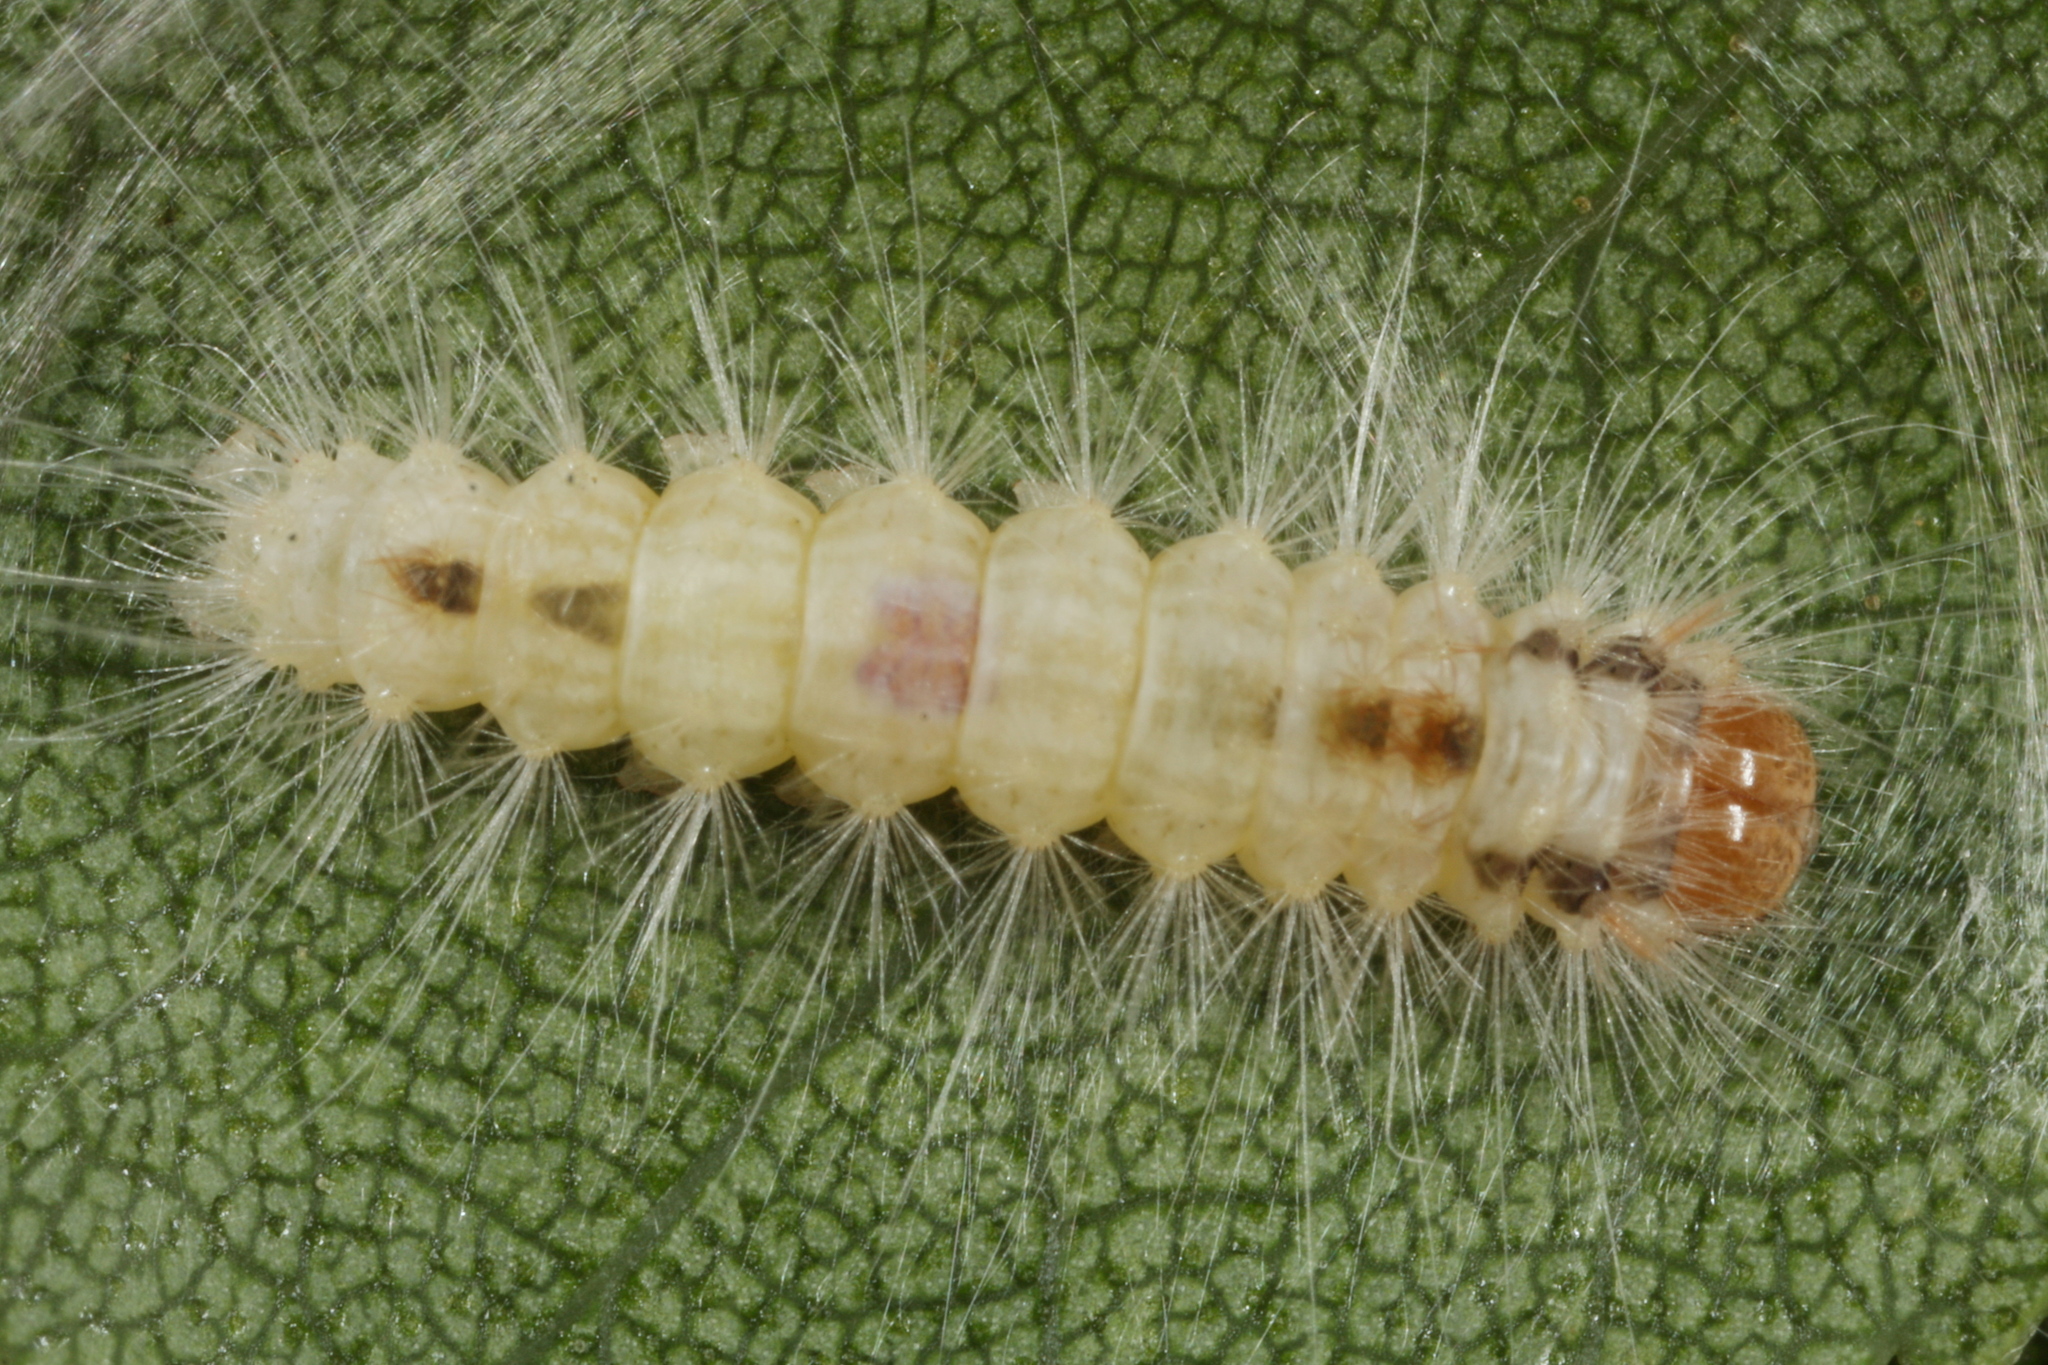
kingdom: Animalia
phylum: Arthropoda
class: Insecta
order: Lepidoptera
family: Noctuidae
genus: Colocasia
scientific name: Colocasia coryli
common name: Nut-tree tussock
